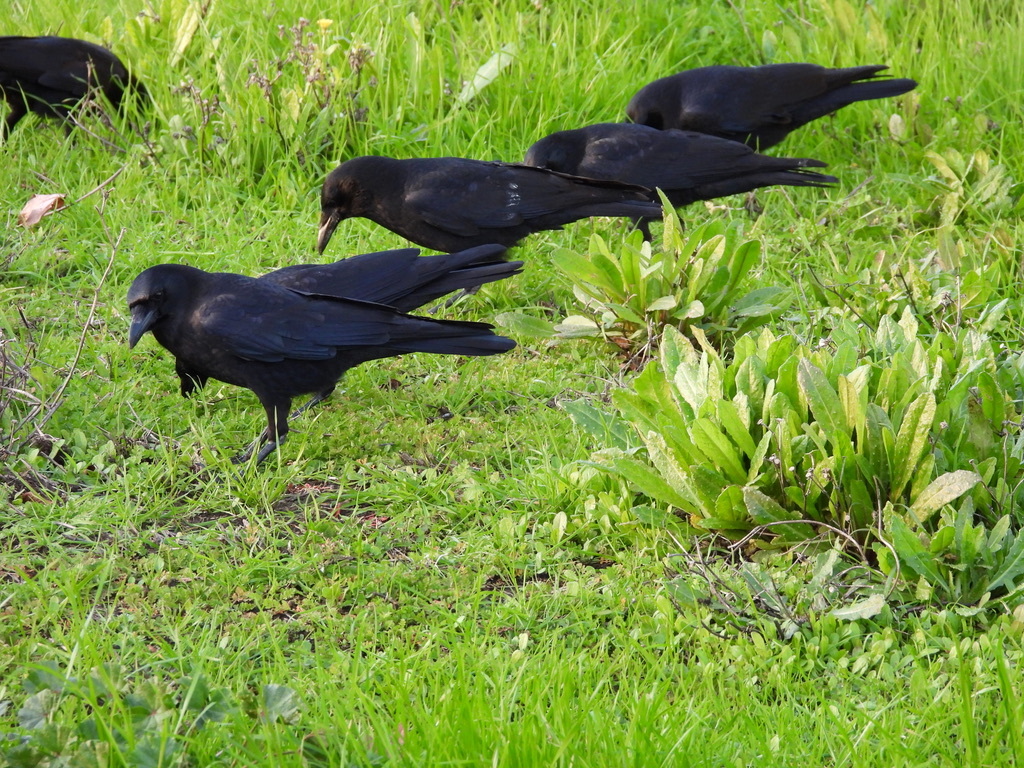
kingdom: Animalia
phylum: Chordata
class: Aves
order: Passeriformes
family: Corvidae
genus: Corvus
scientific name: Corvus brachyrhynchos
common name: American crow
